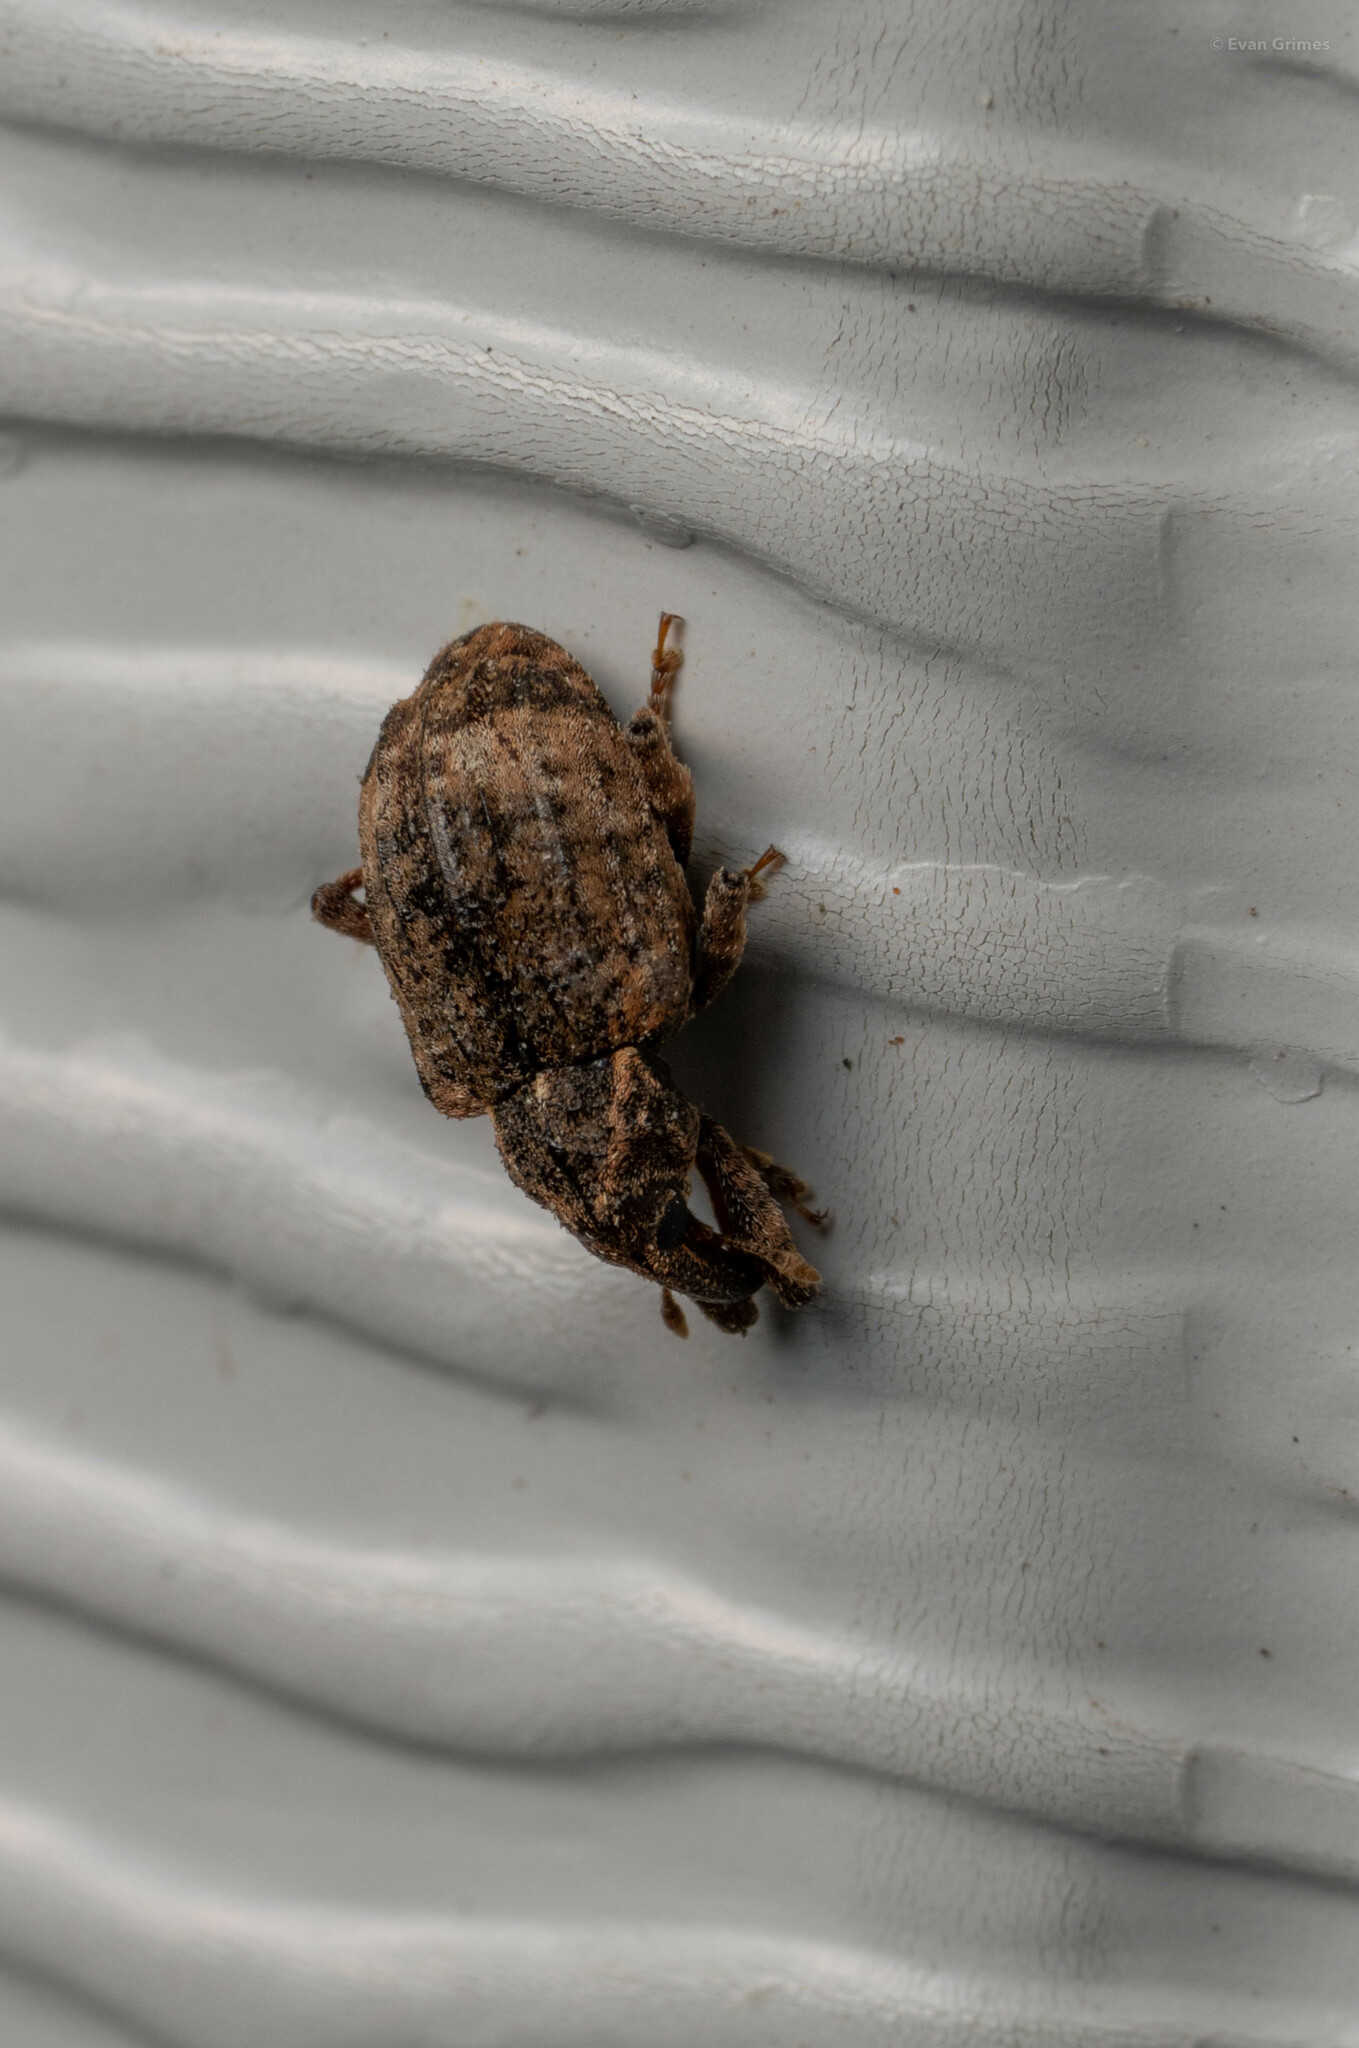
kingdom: Animalia
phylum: Arthropoda
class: Insecta
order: Coleoptera
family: Curculionidae
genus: Conotrachelus
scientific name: Conotrachelus seniculus
